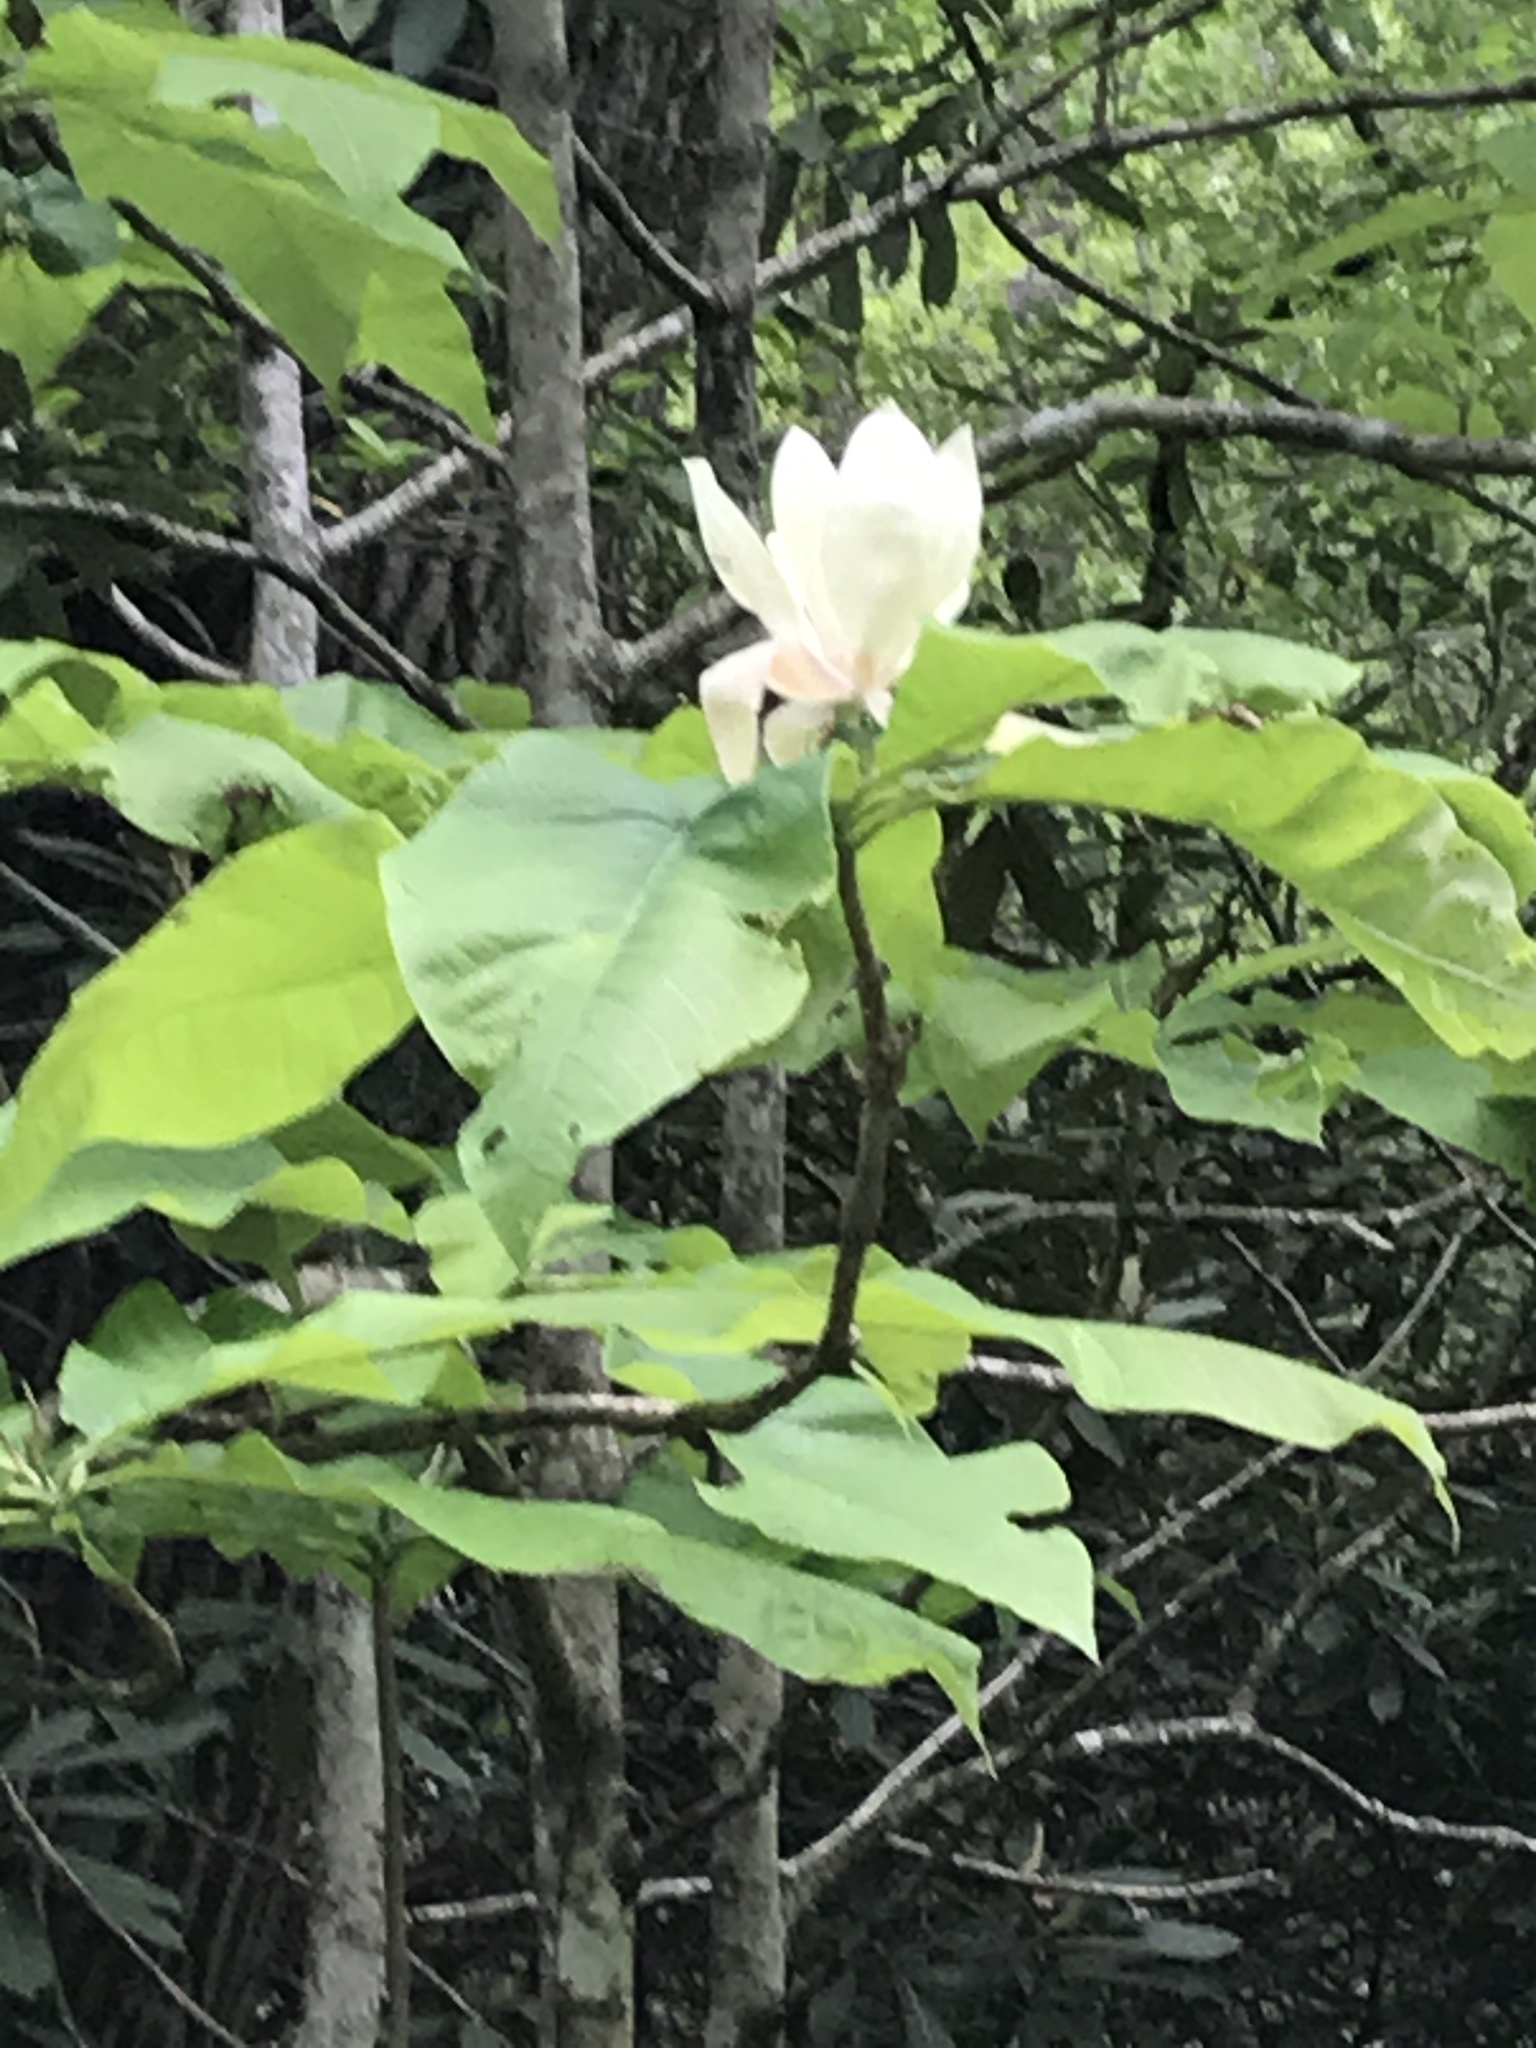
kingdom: Plantae
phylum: Tracheophyta
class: Magnoliopsida
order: Magnoliales
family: Magnoliaceae
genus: Magnolia
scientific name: Magnolia tripetala
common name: Umbrella magnolia
